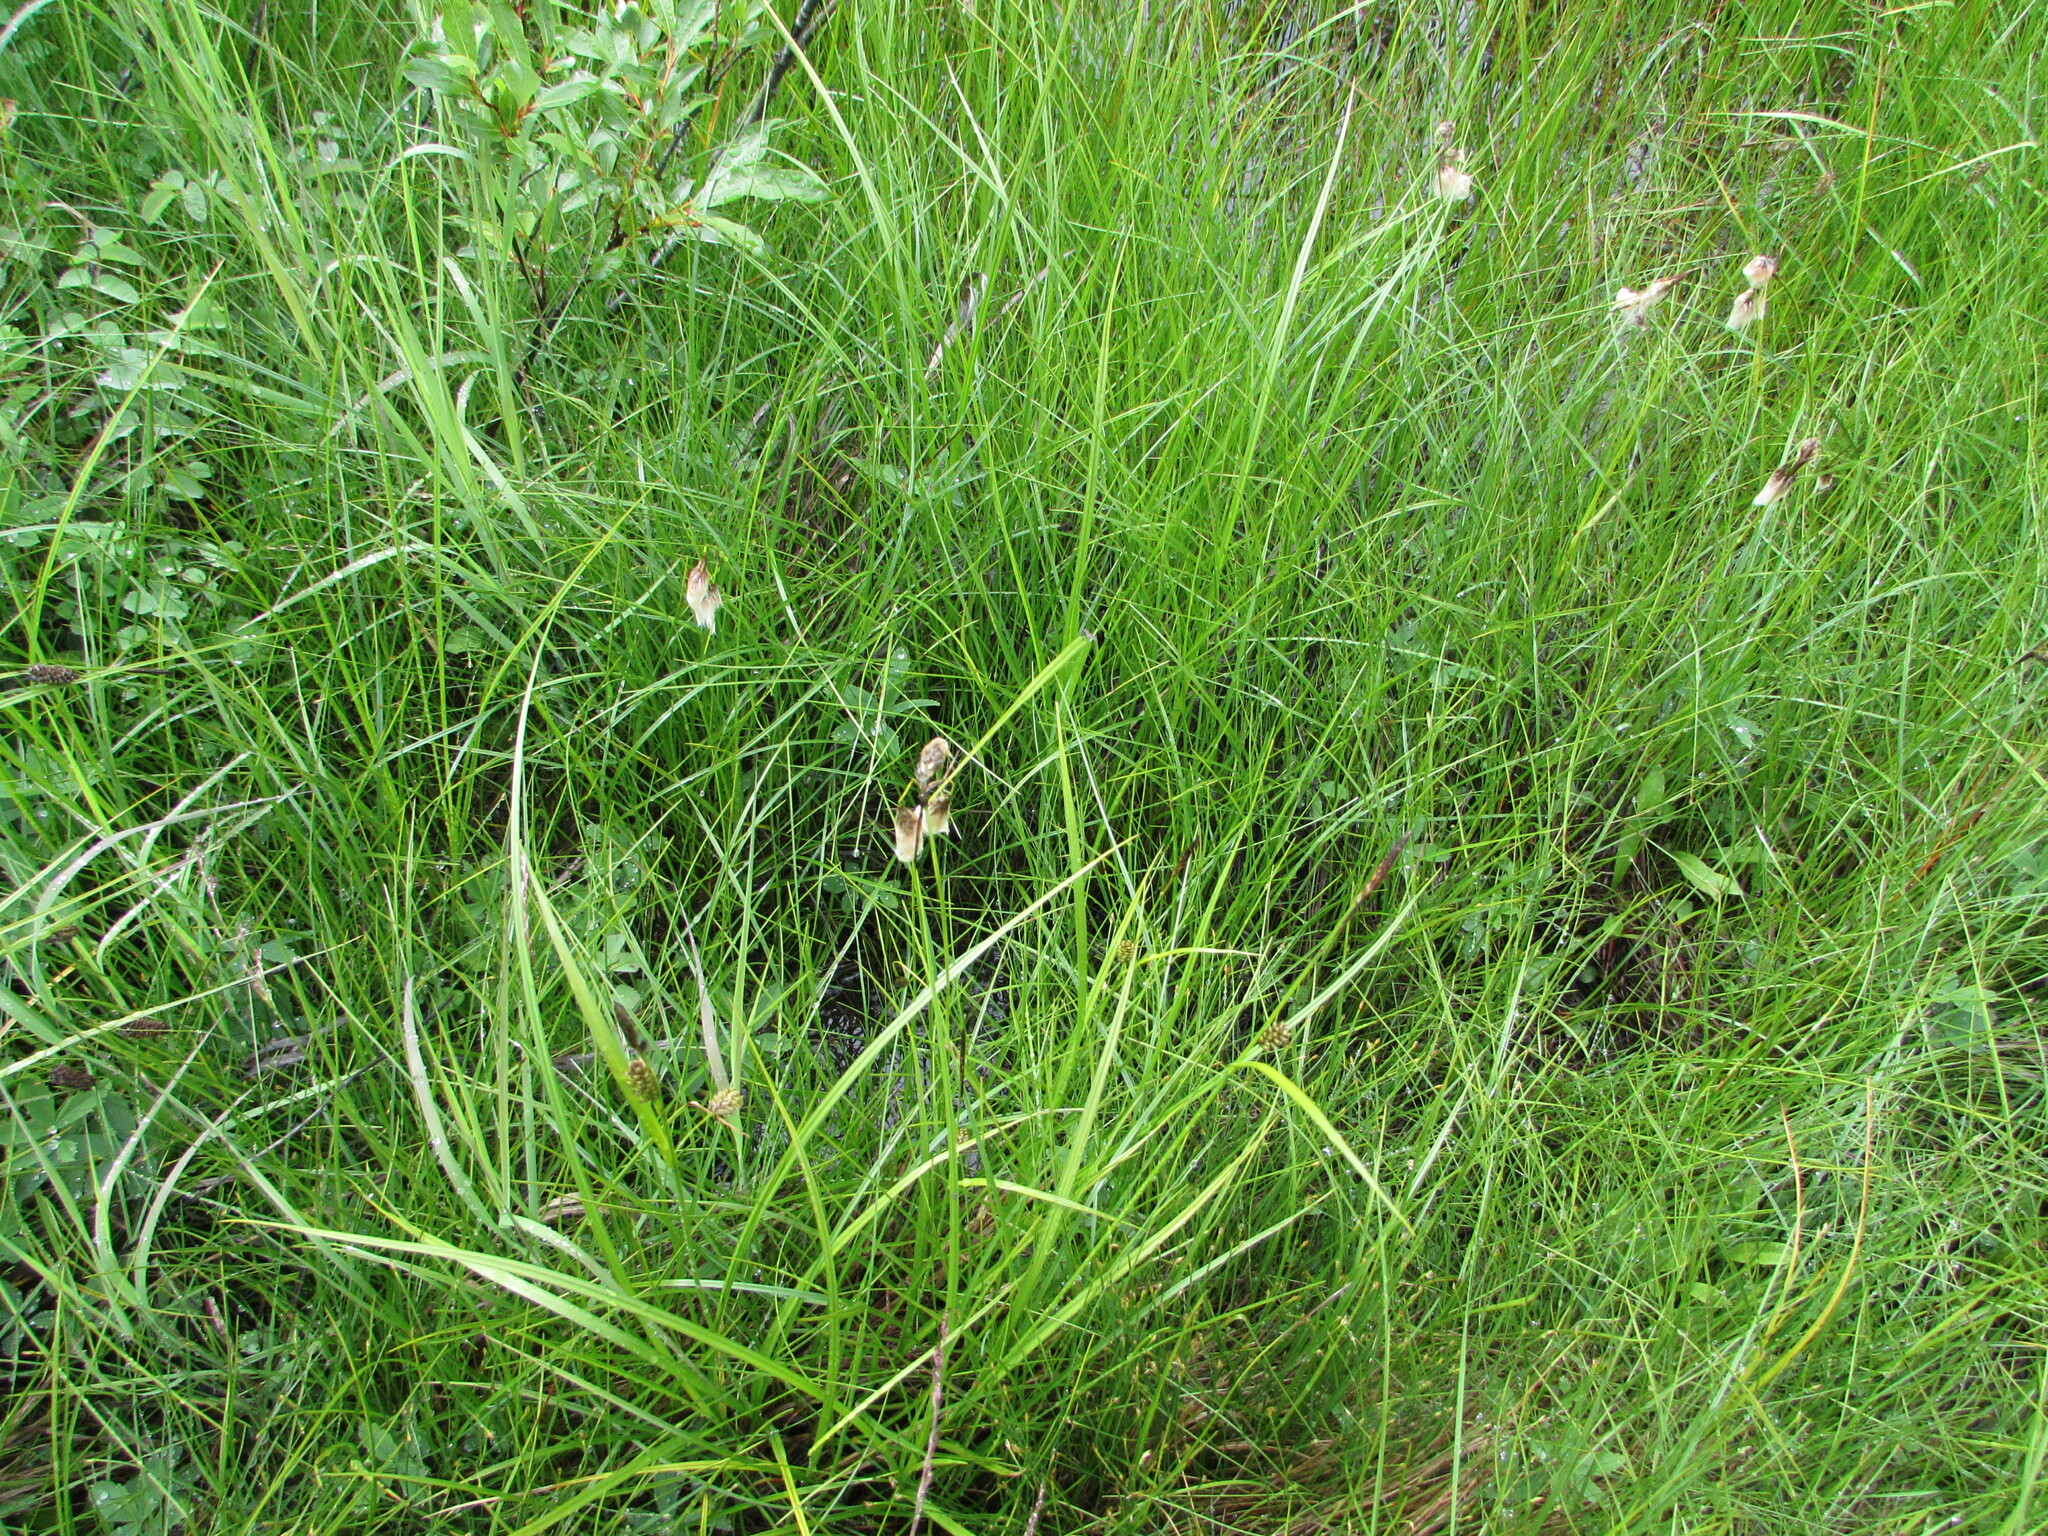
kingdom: Plantae
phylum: Tracheophyta
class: Liliopsida
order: Poales
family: Cyperaceae
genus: Eriophorum
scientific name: Eriophorum angustifolium
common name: Common cottongrass
